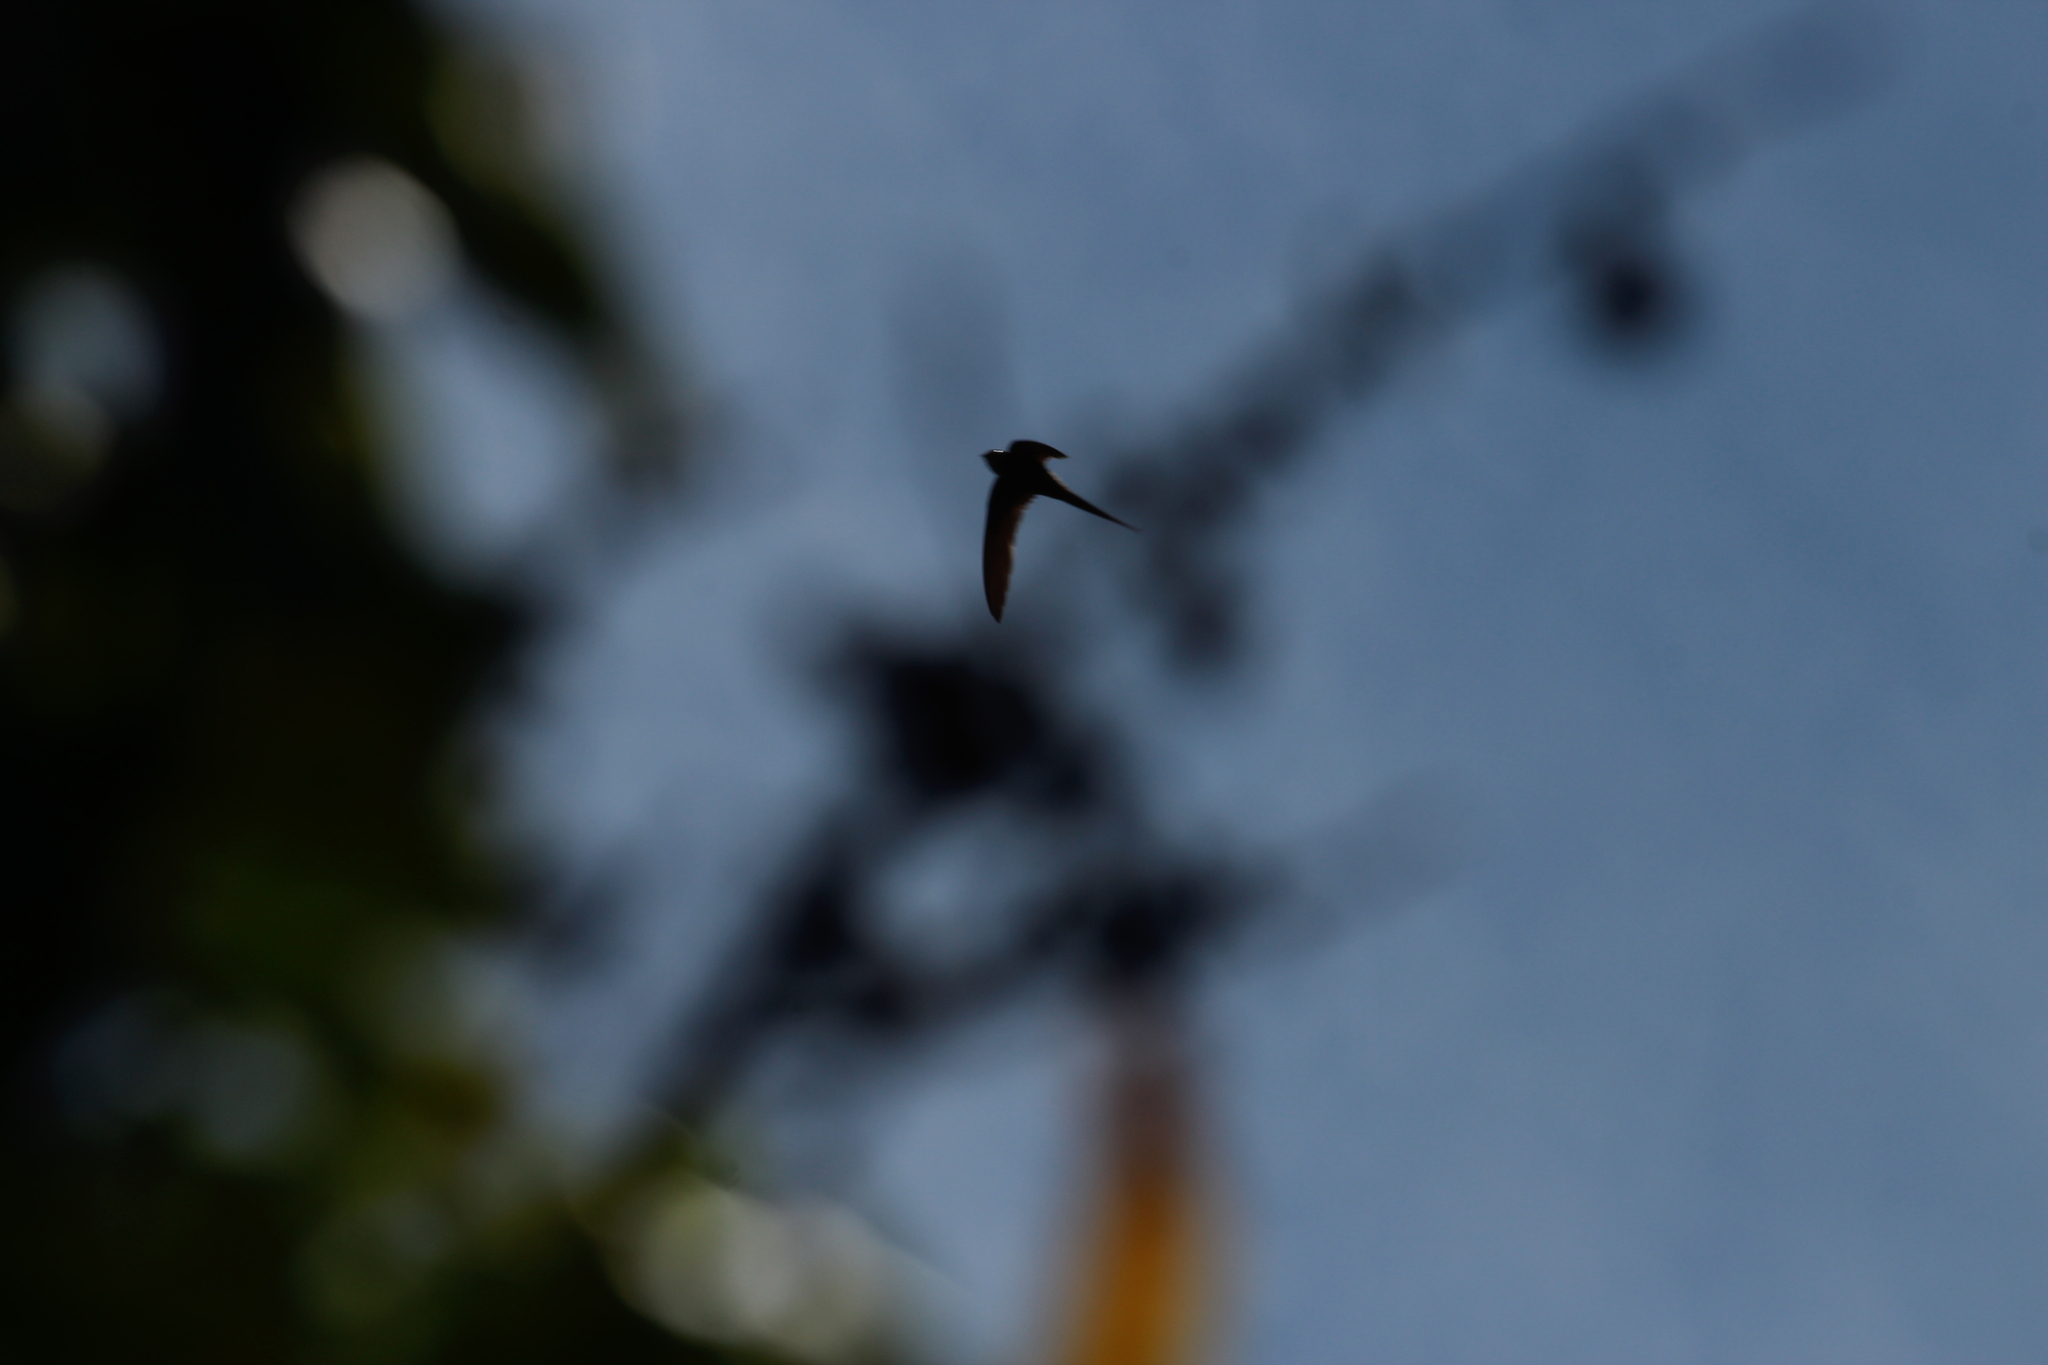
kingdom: Animalia
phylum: Chordata
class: Aves
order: Apodiformes
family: Apodidae
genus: Cypsiurus
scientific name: Cypsiurus parvus
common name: African palm swift
